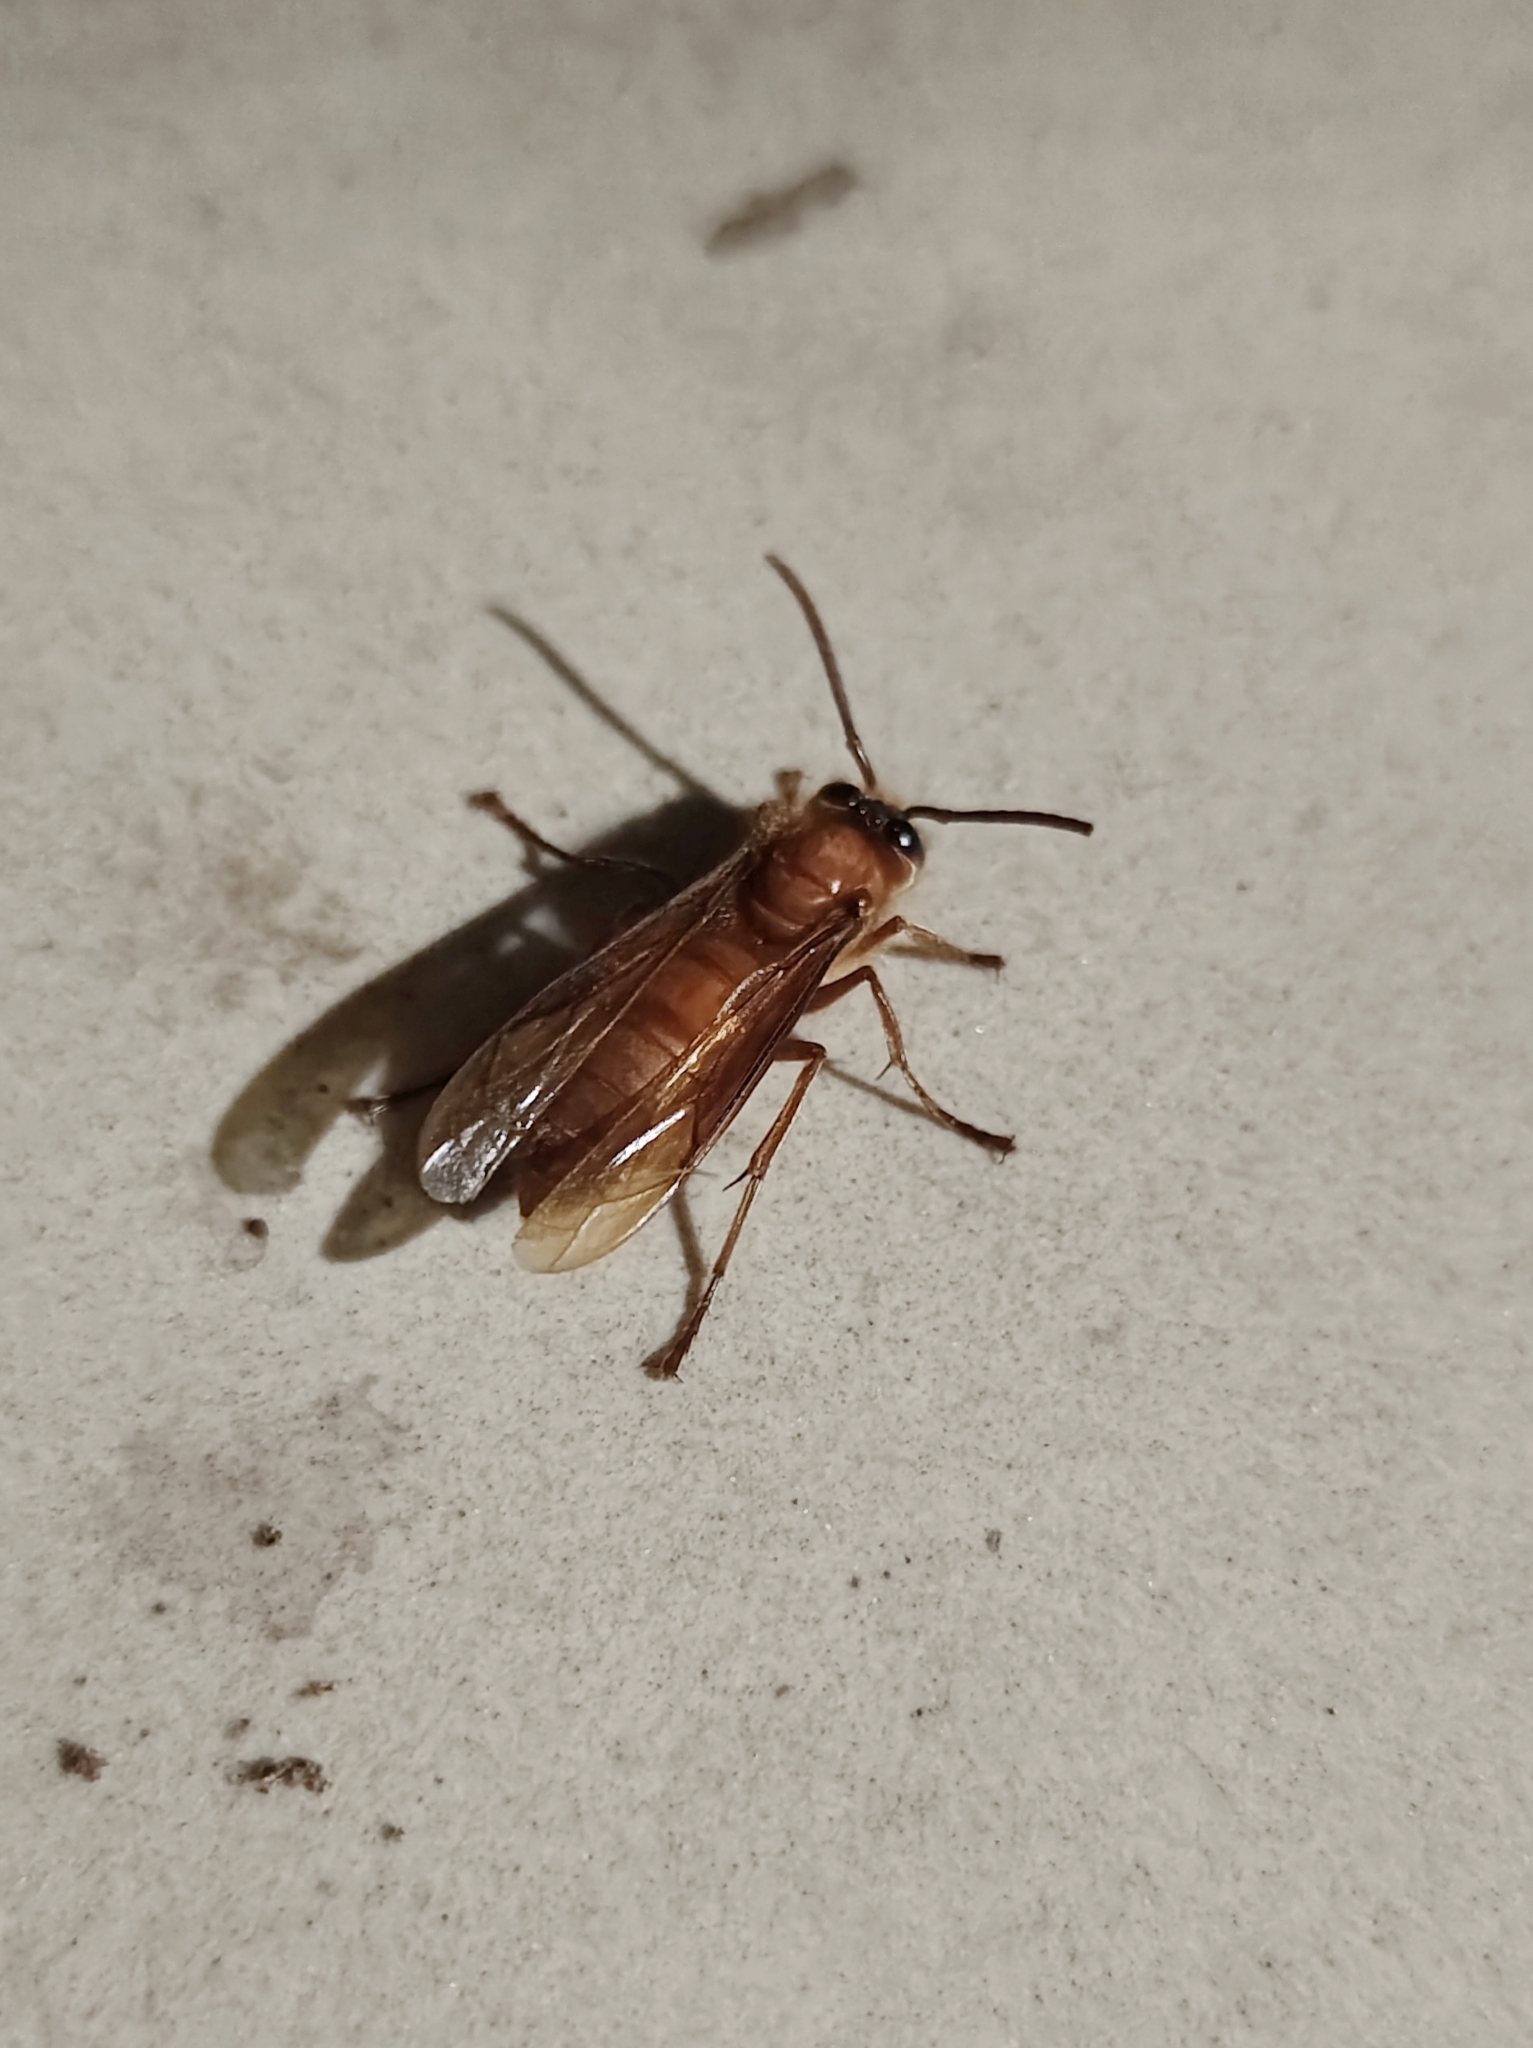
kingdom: Animalia
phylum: Arthropoda
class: Insecta
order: Hymenoptera
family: Vespidae
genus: Provespa
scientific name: Provespa barthelemyi
